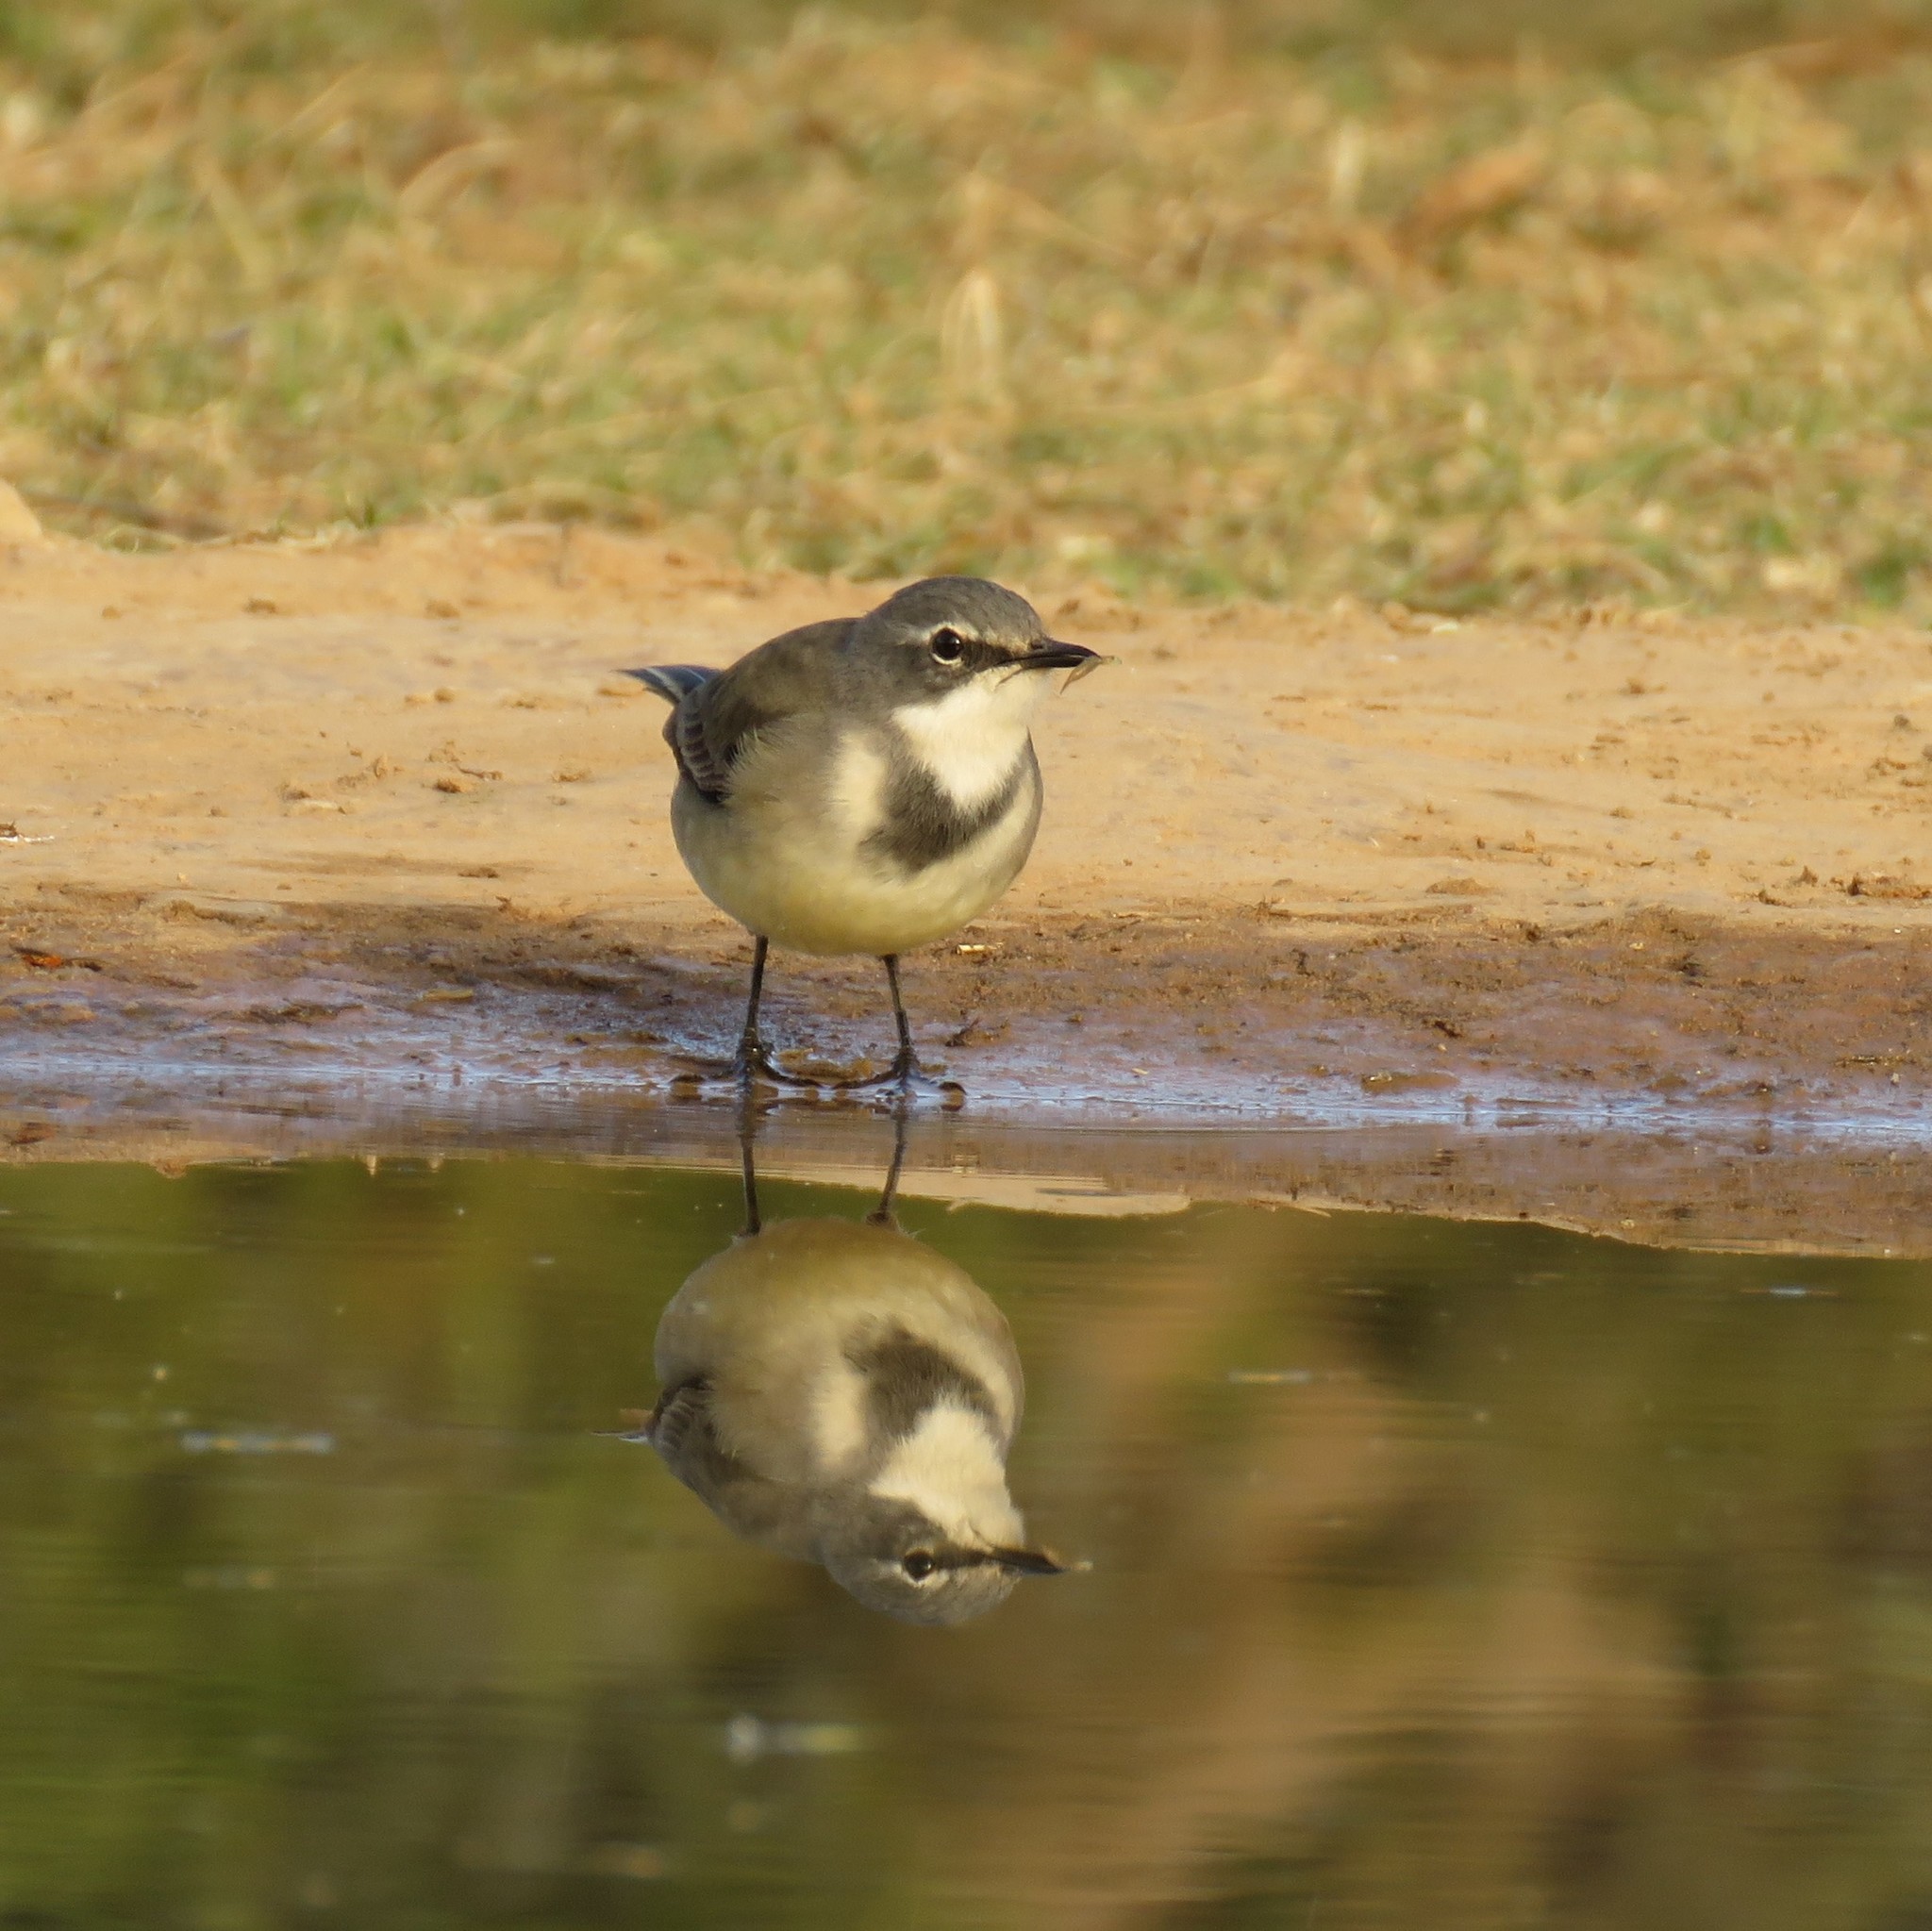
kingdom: Animalia
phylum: Chordata
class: Aves
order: Passeriformes
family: Motacillidae
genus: Motacilla
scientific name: Motacilla capensis
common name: Cape wagtail
